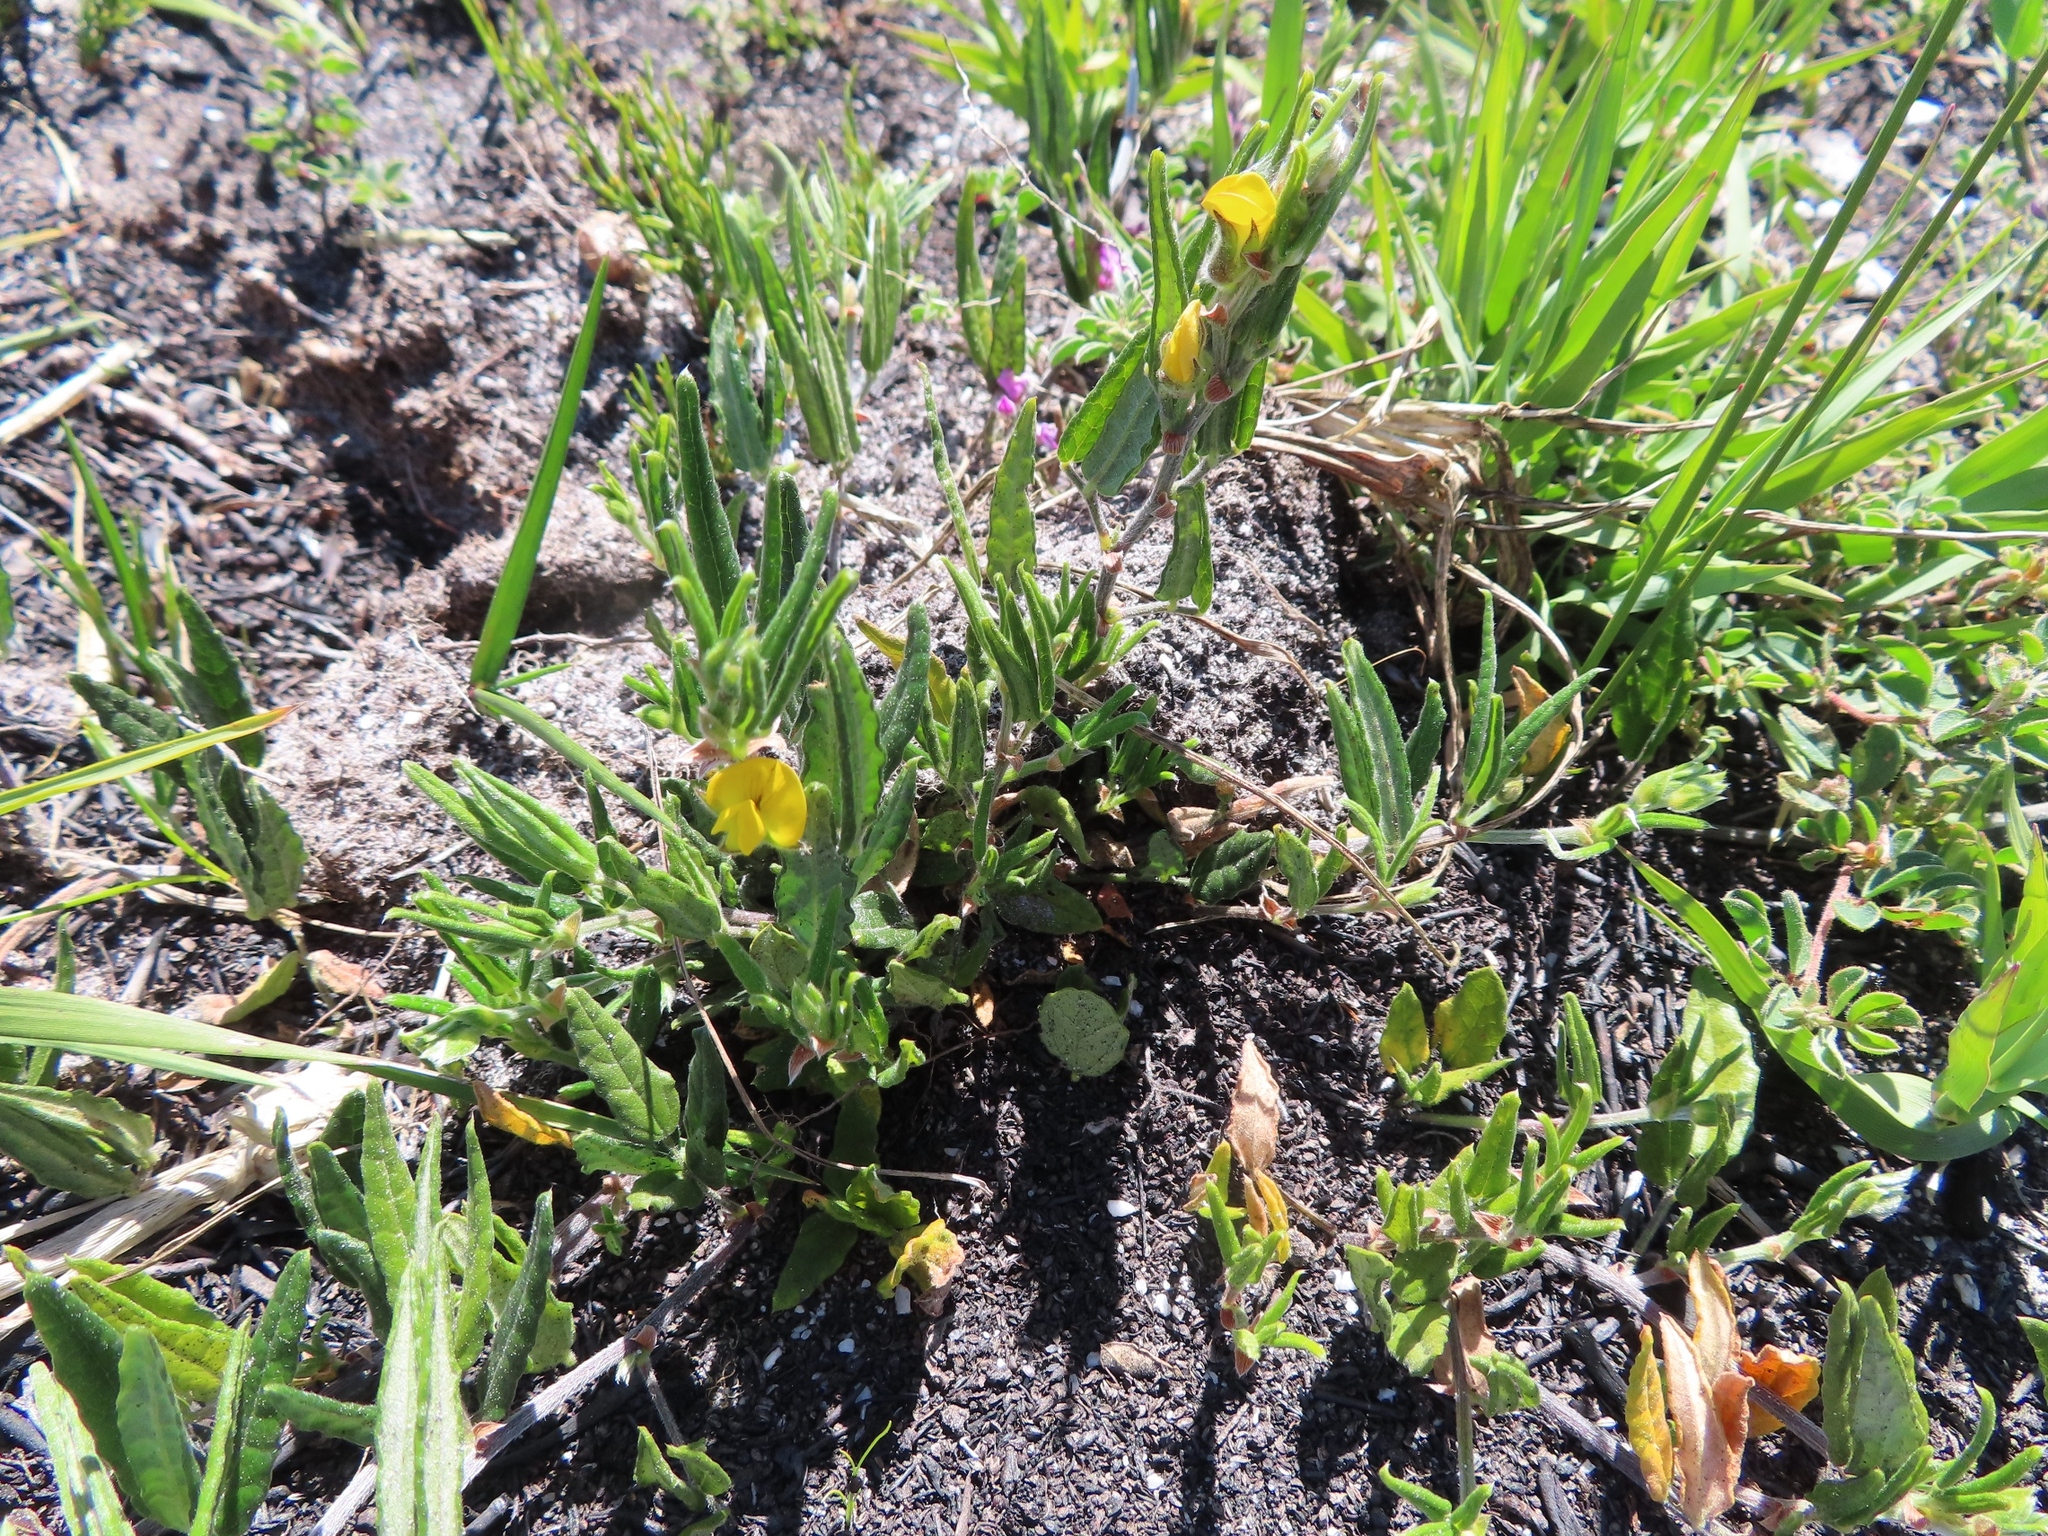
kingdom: Plantae
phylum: Tracheophyta
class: Magnoliopsida
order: Fabales
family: Fabaceae
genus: Rhynchosia
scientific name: Rhynchosia leucoscias
